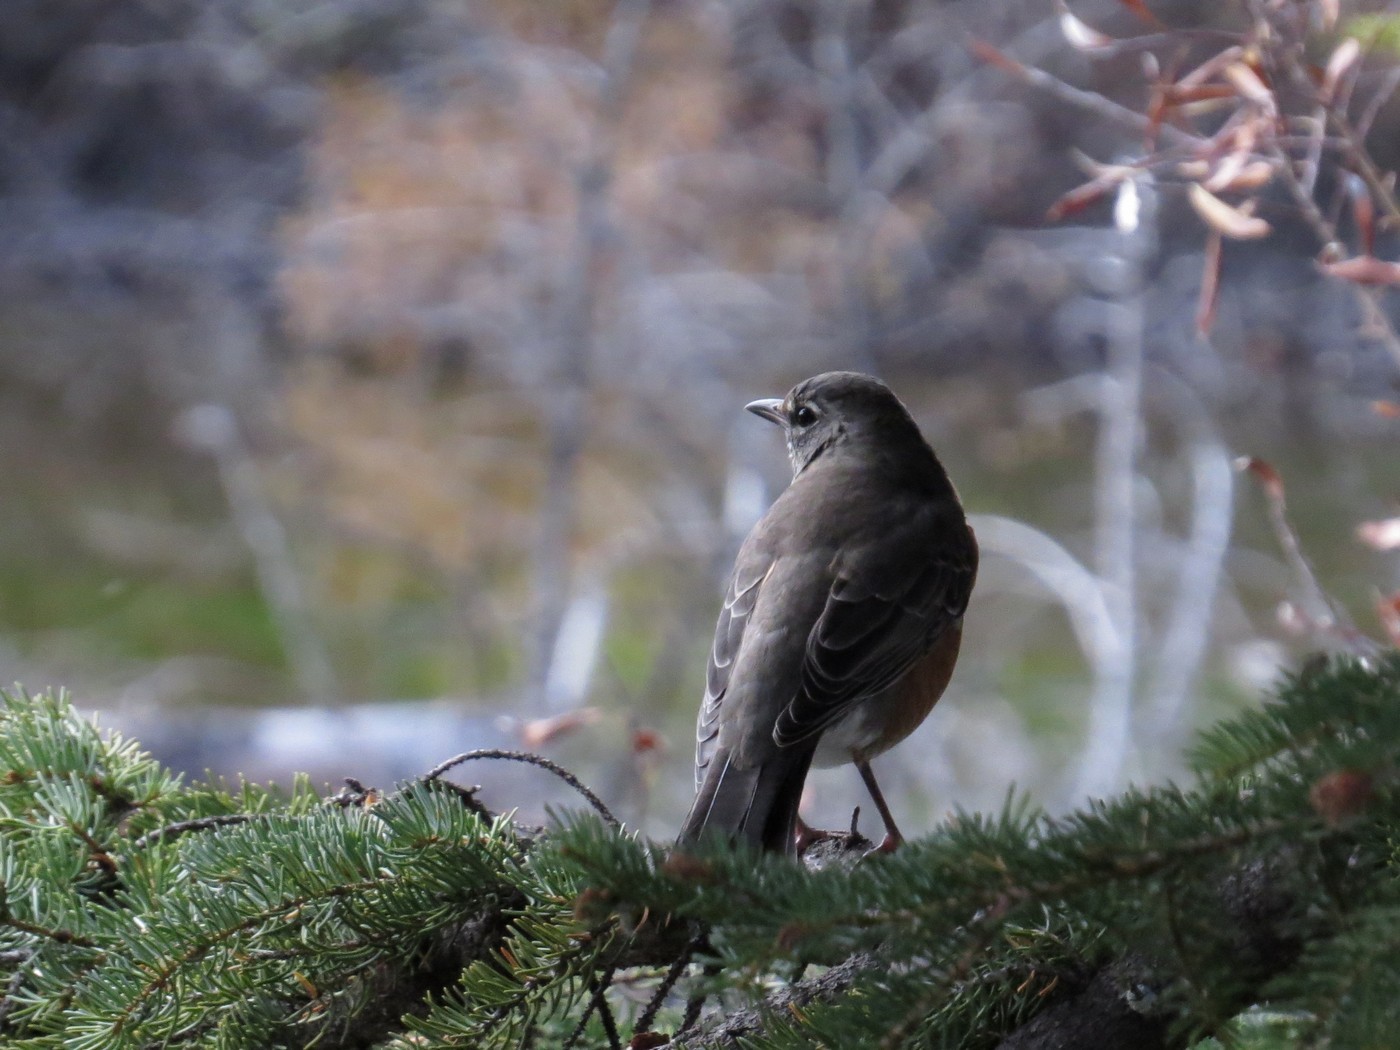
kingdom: Animalia
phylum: Chordata
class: Aves
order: Passeriformes
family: Turdidae
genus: Turdus
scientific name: Turdus migratorius
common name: American robin
